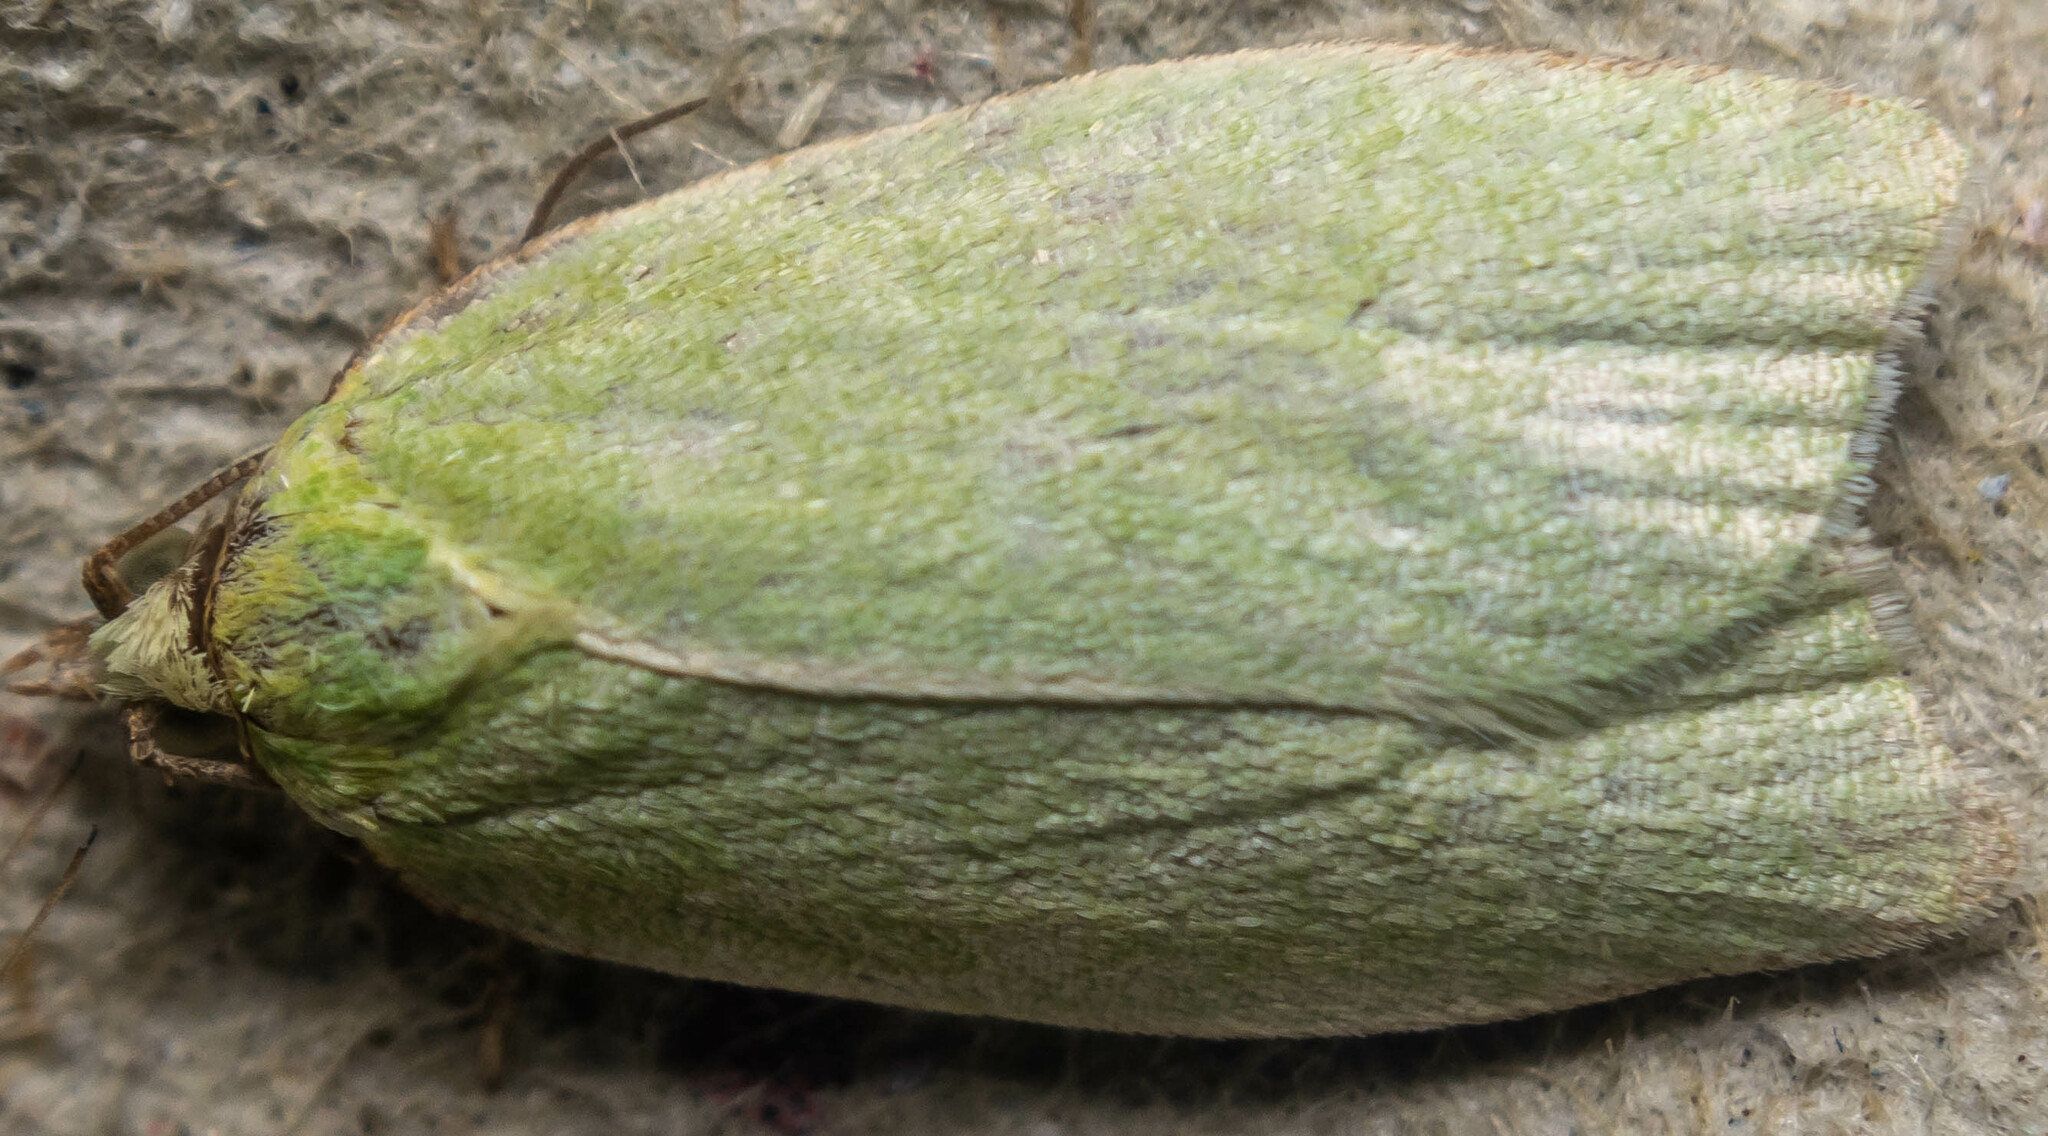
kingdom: Animalia
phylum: Arthropoda
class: Insecta
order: Lepidoptera
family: Tortricidae
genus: Tortrix
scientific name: Tortrix viridana
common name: Green oak tortrix
